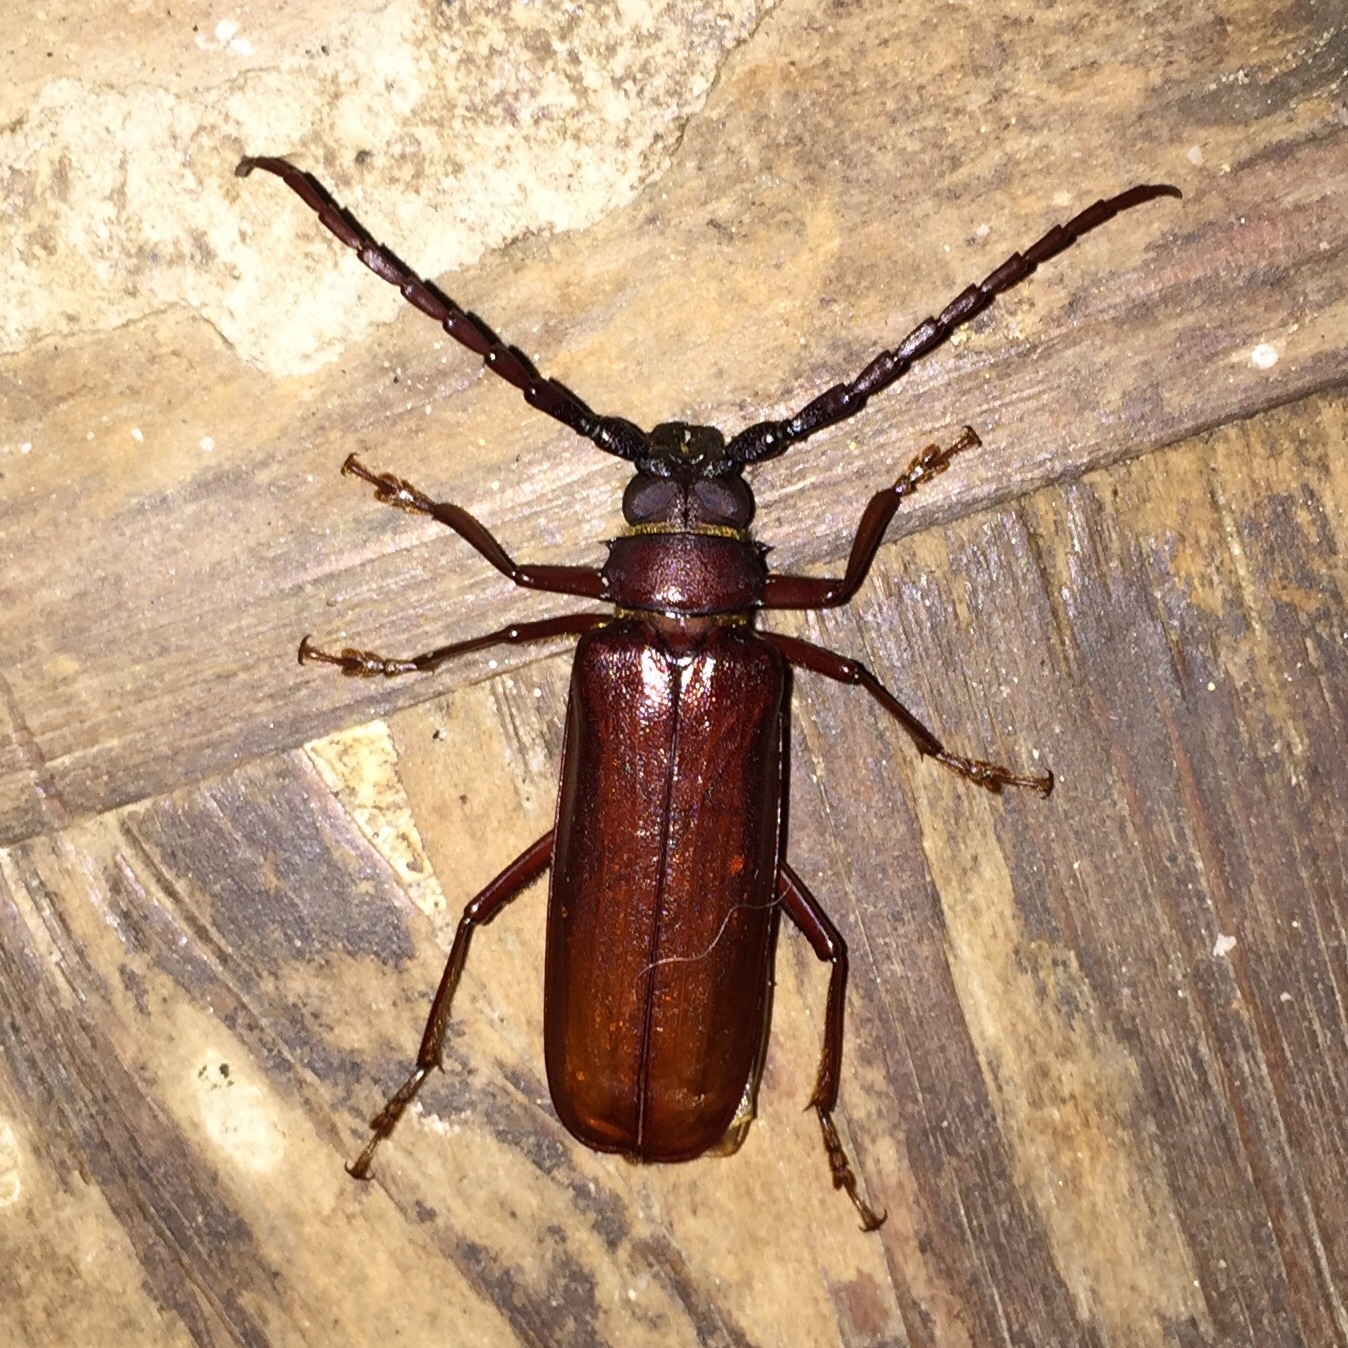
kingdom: Animalia
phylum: Arthropoda
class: Insecta
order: Coleoptera
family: Cerambycidae
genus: Orthosoma
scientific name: Orthosoma brunneum
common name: Brown prionid beetle
